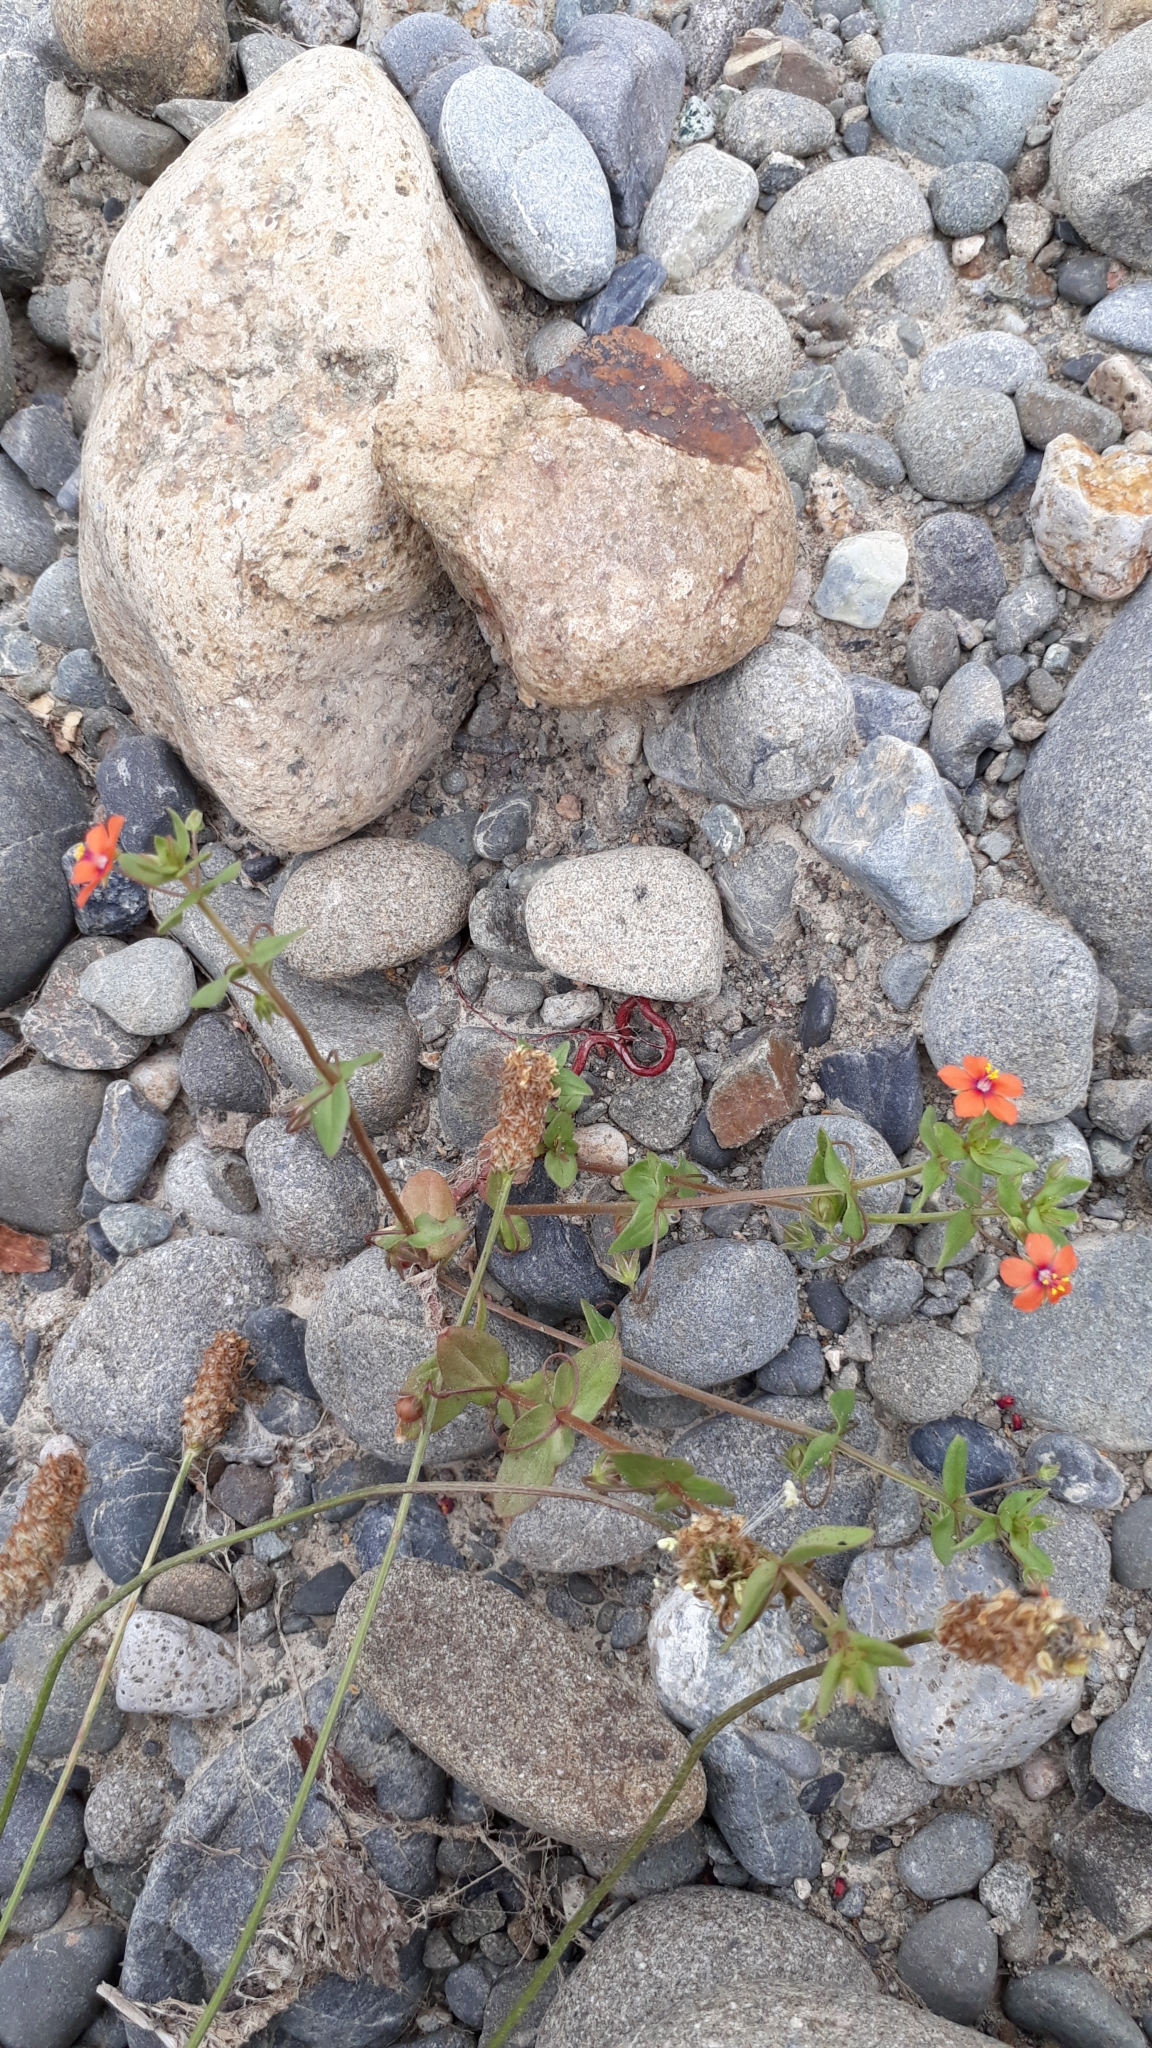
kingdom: Plantae
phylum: Tracheophyta
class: Magnoliopsida
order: Ericales
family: Primulaceae
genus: Lysimachia
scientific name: Lysimachia arvensis
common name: Scarlet pimpernel
